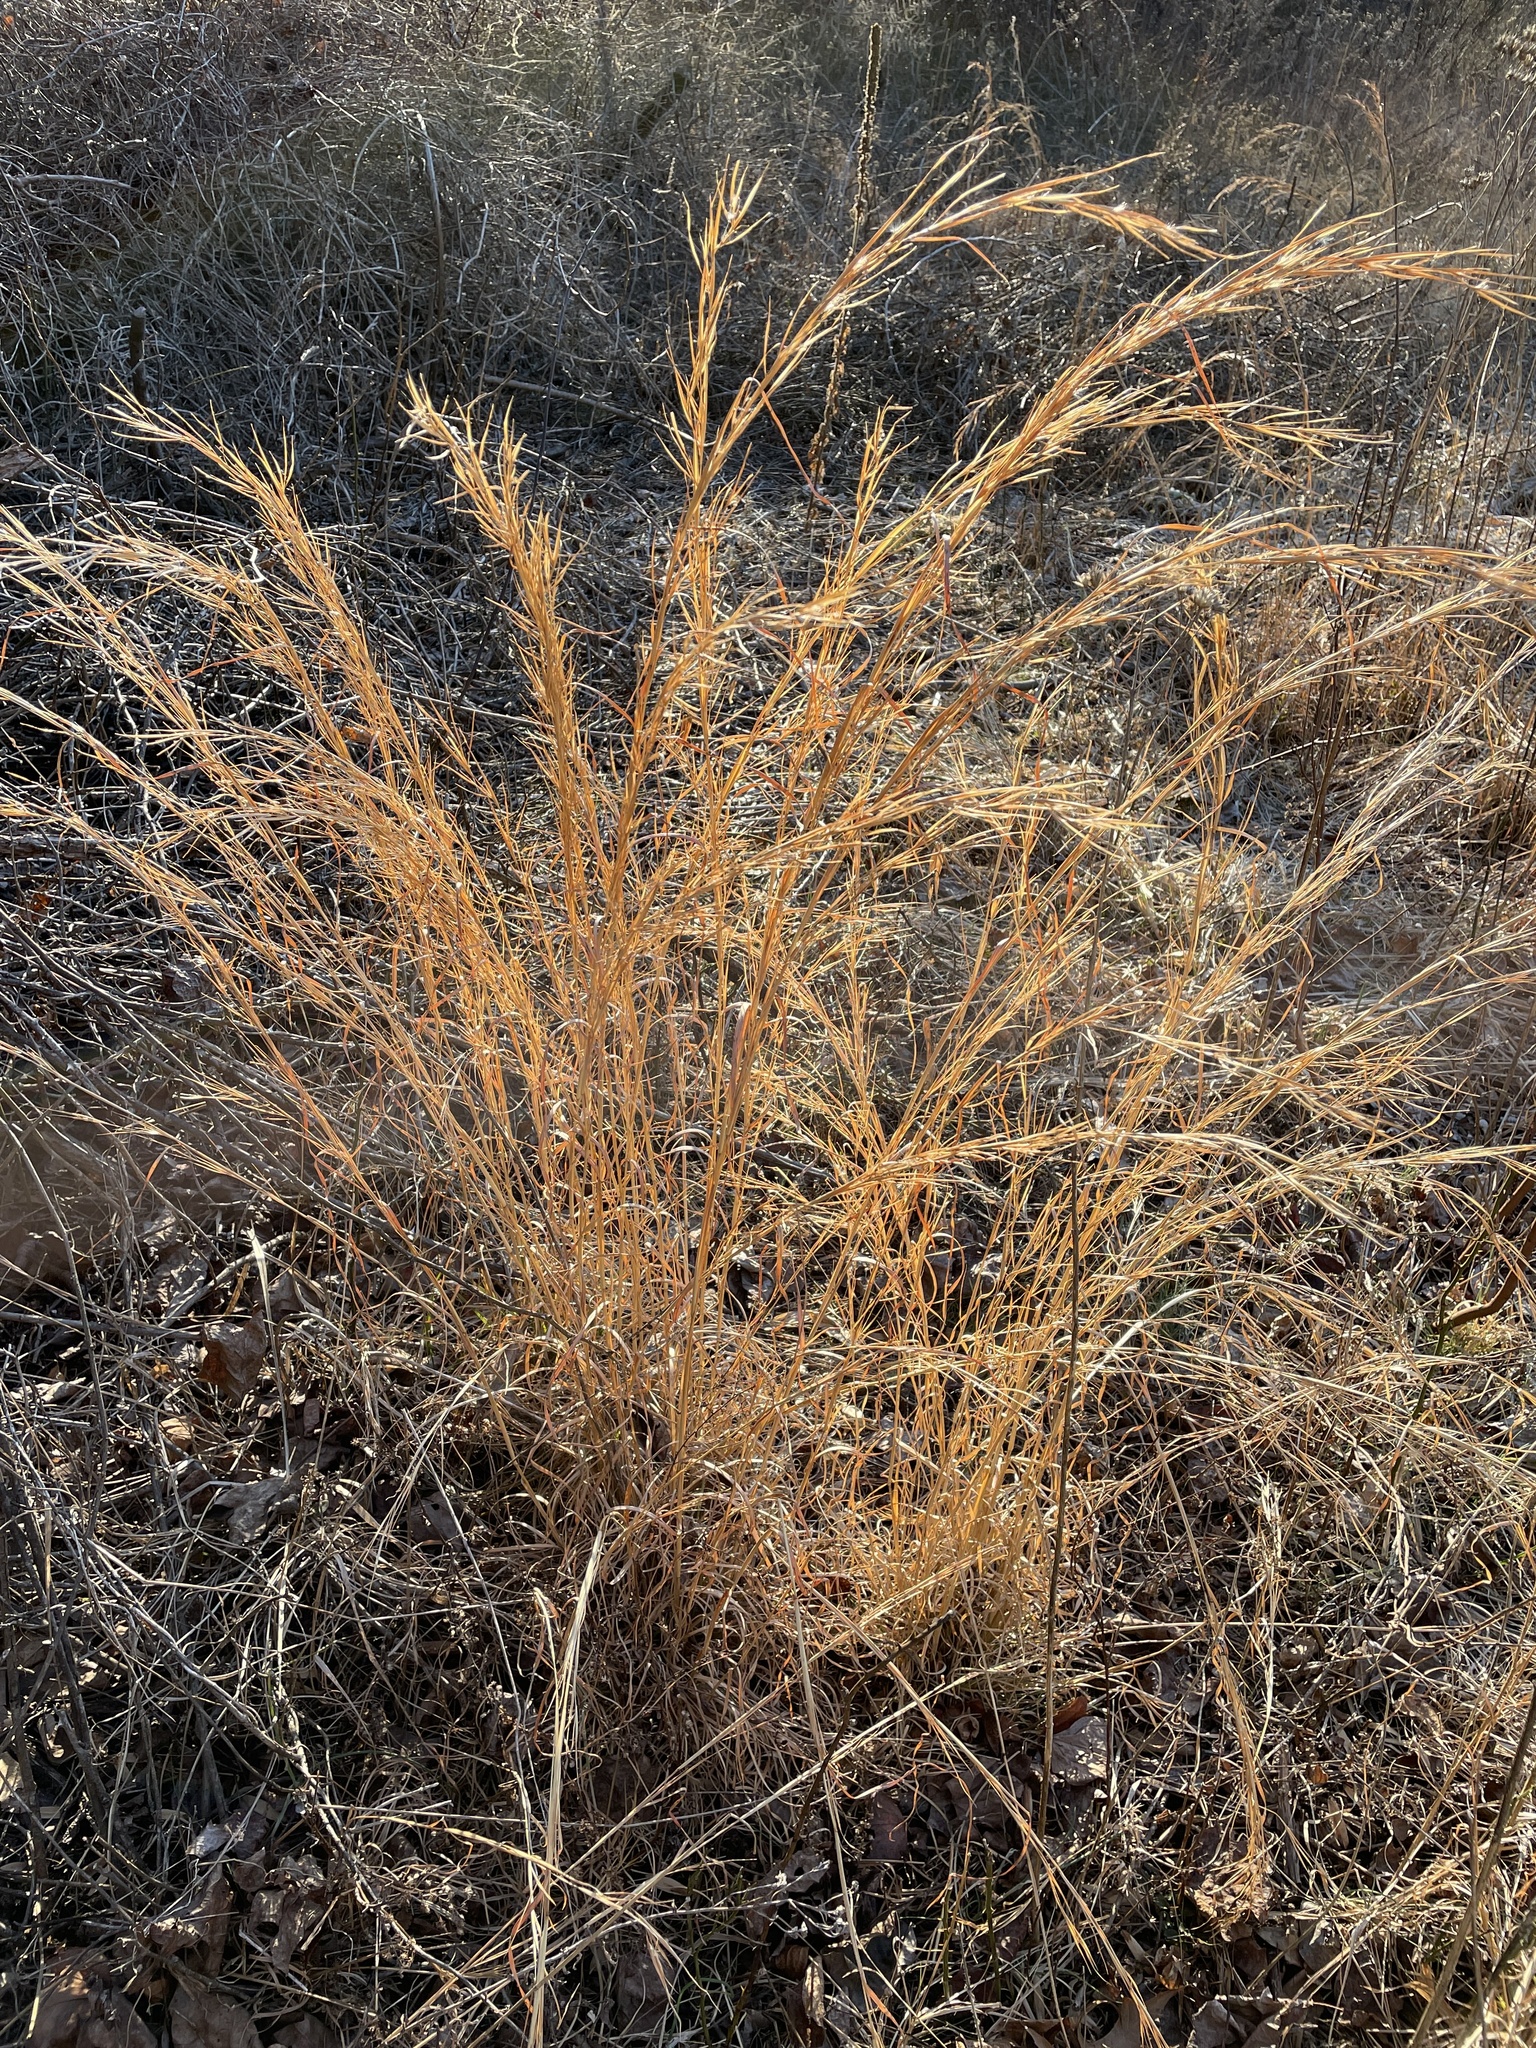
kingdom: Plantae
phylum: Tracheophyta
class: Liliopsida
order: Poales
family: Poaceae
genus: Andropogon
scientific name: Andropogon virginicus
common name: Broomsedge bluestem
